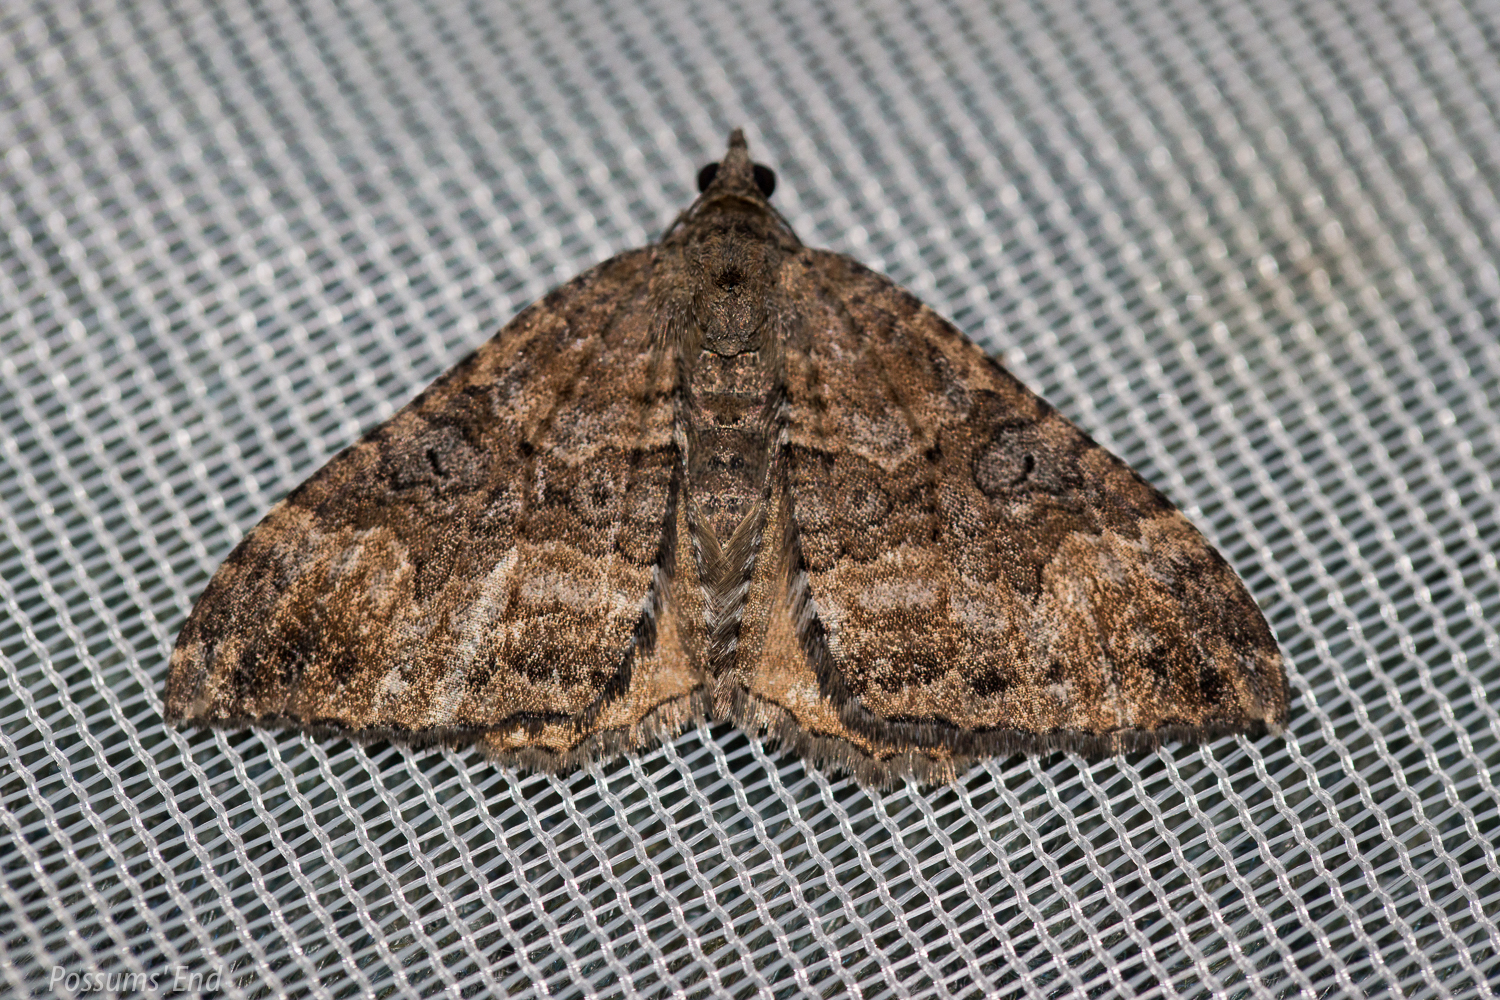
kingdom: Animalia
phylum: Arthropoda
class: Insecta
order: Lepidoptera
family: Geometridae
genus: Hydriomena
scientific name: Hydriomena deltoidata
